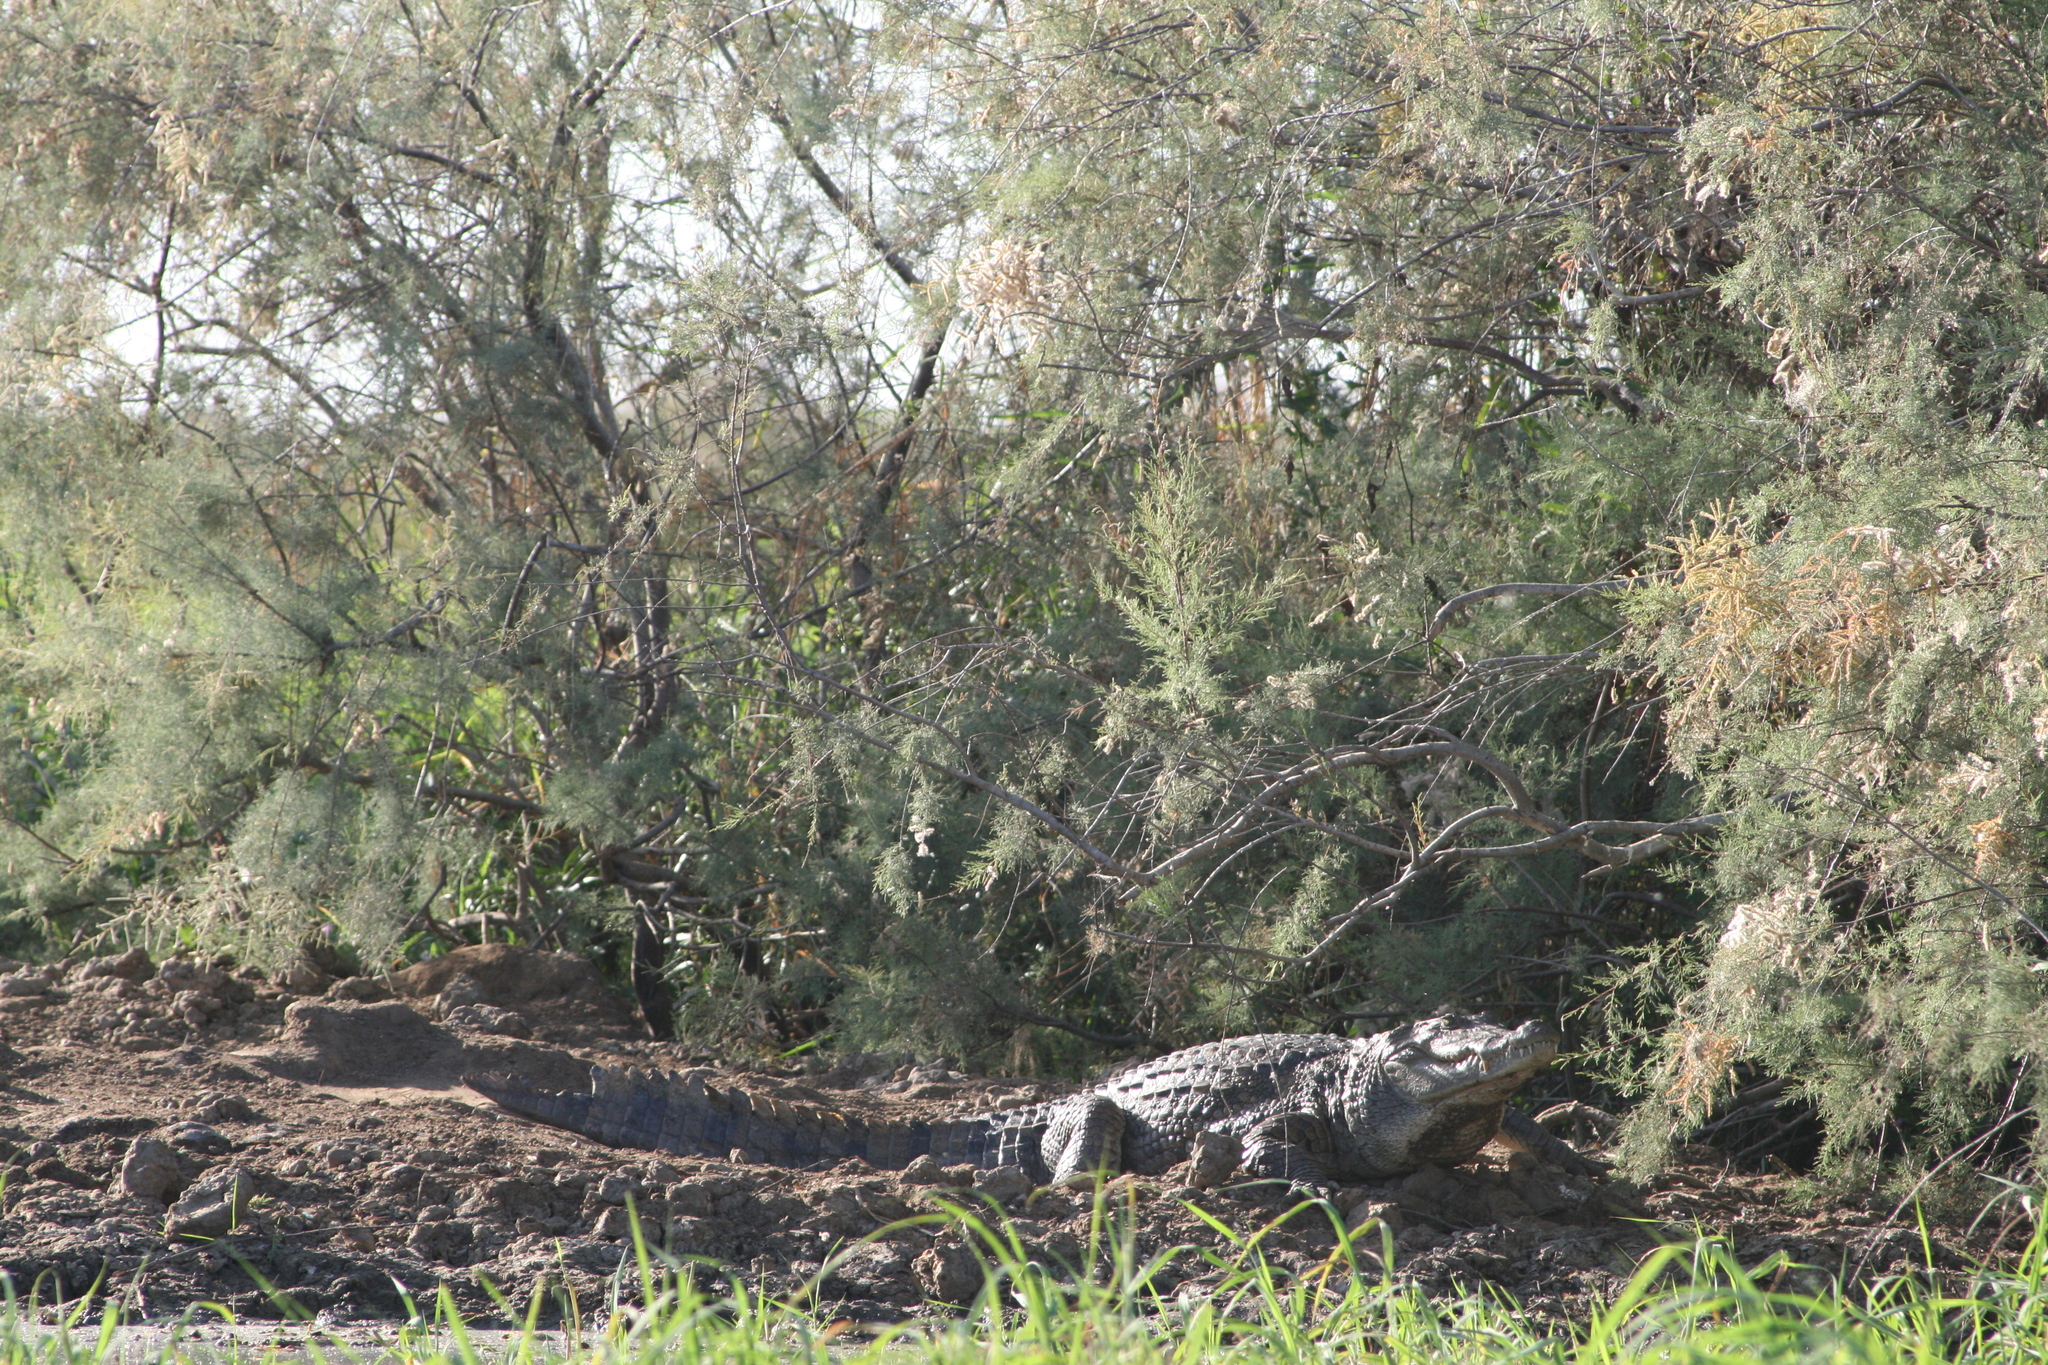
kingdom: Animalia
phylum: Chordata
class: Crocodylia
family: Crocodylidae
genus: Crocodylus
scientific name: Crocodylus suchus
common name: West african crocodile
